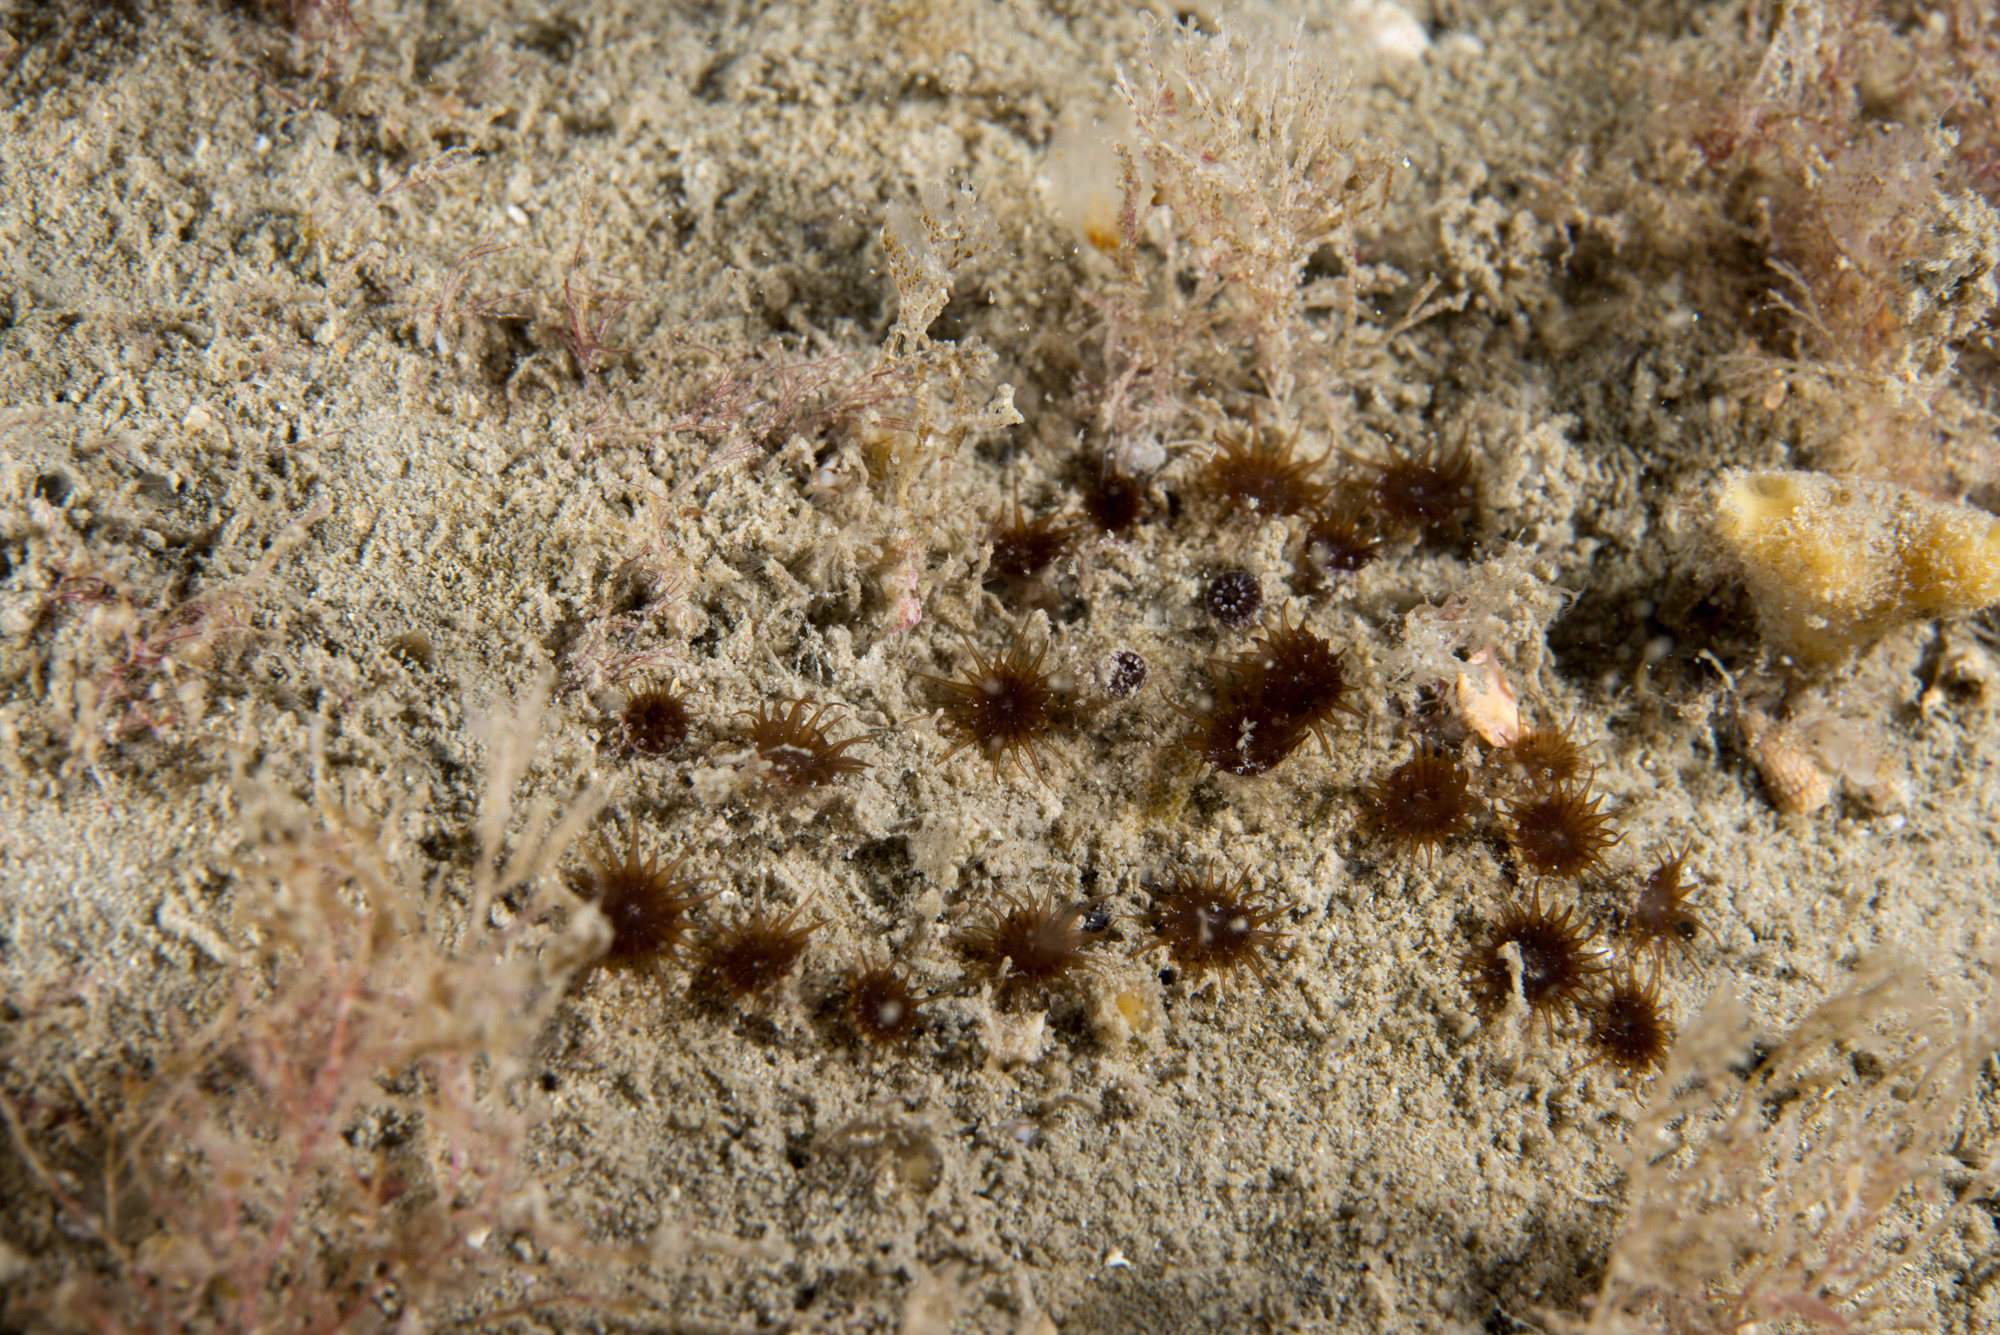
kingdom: Animalia
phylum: Cnidaria
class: Anthozoa
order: Zoantharia
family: Parazoanthidae
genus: Isozoanthus
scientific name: Isozoanthus sulcatus
